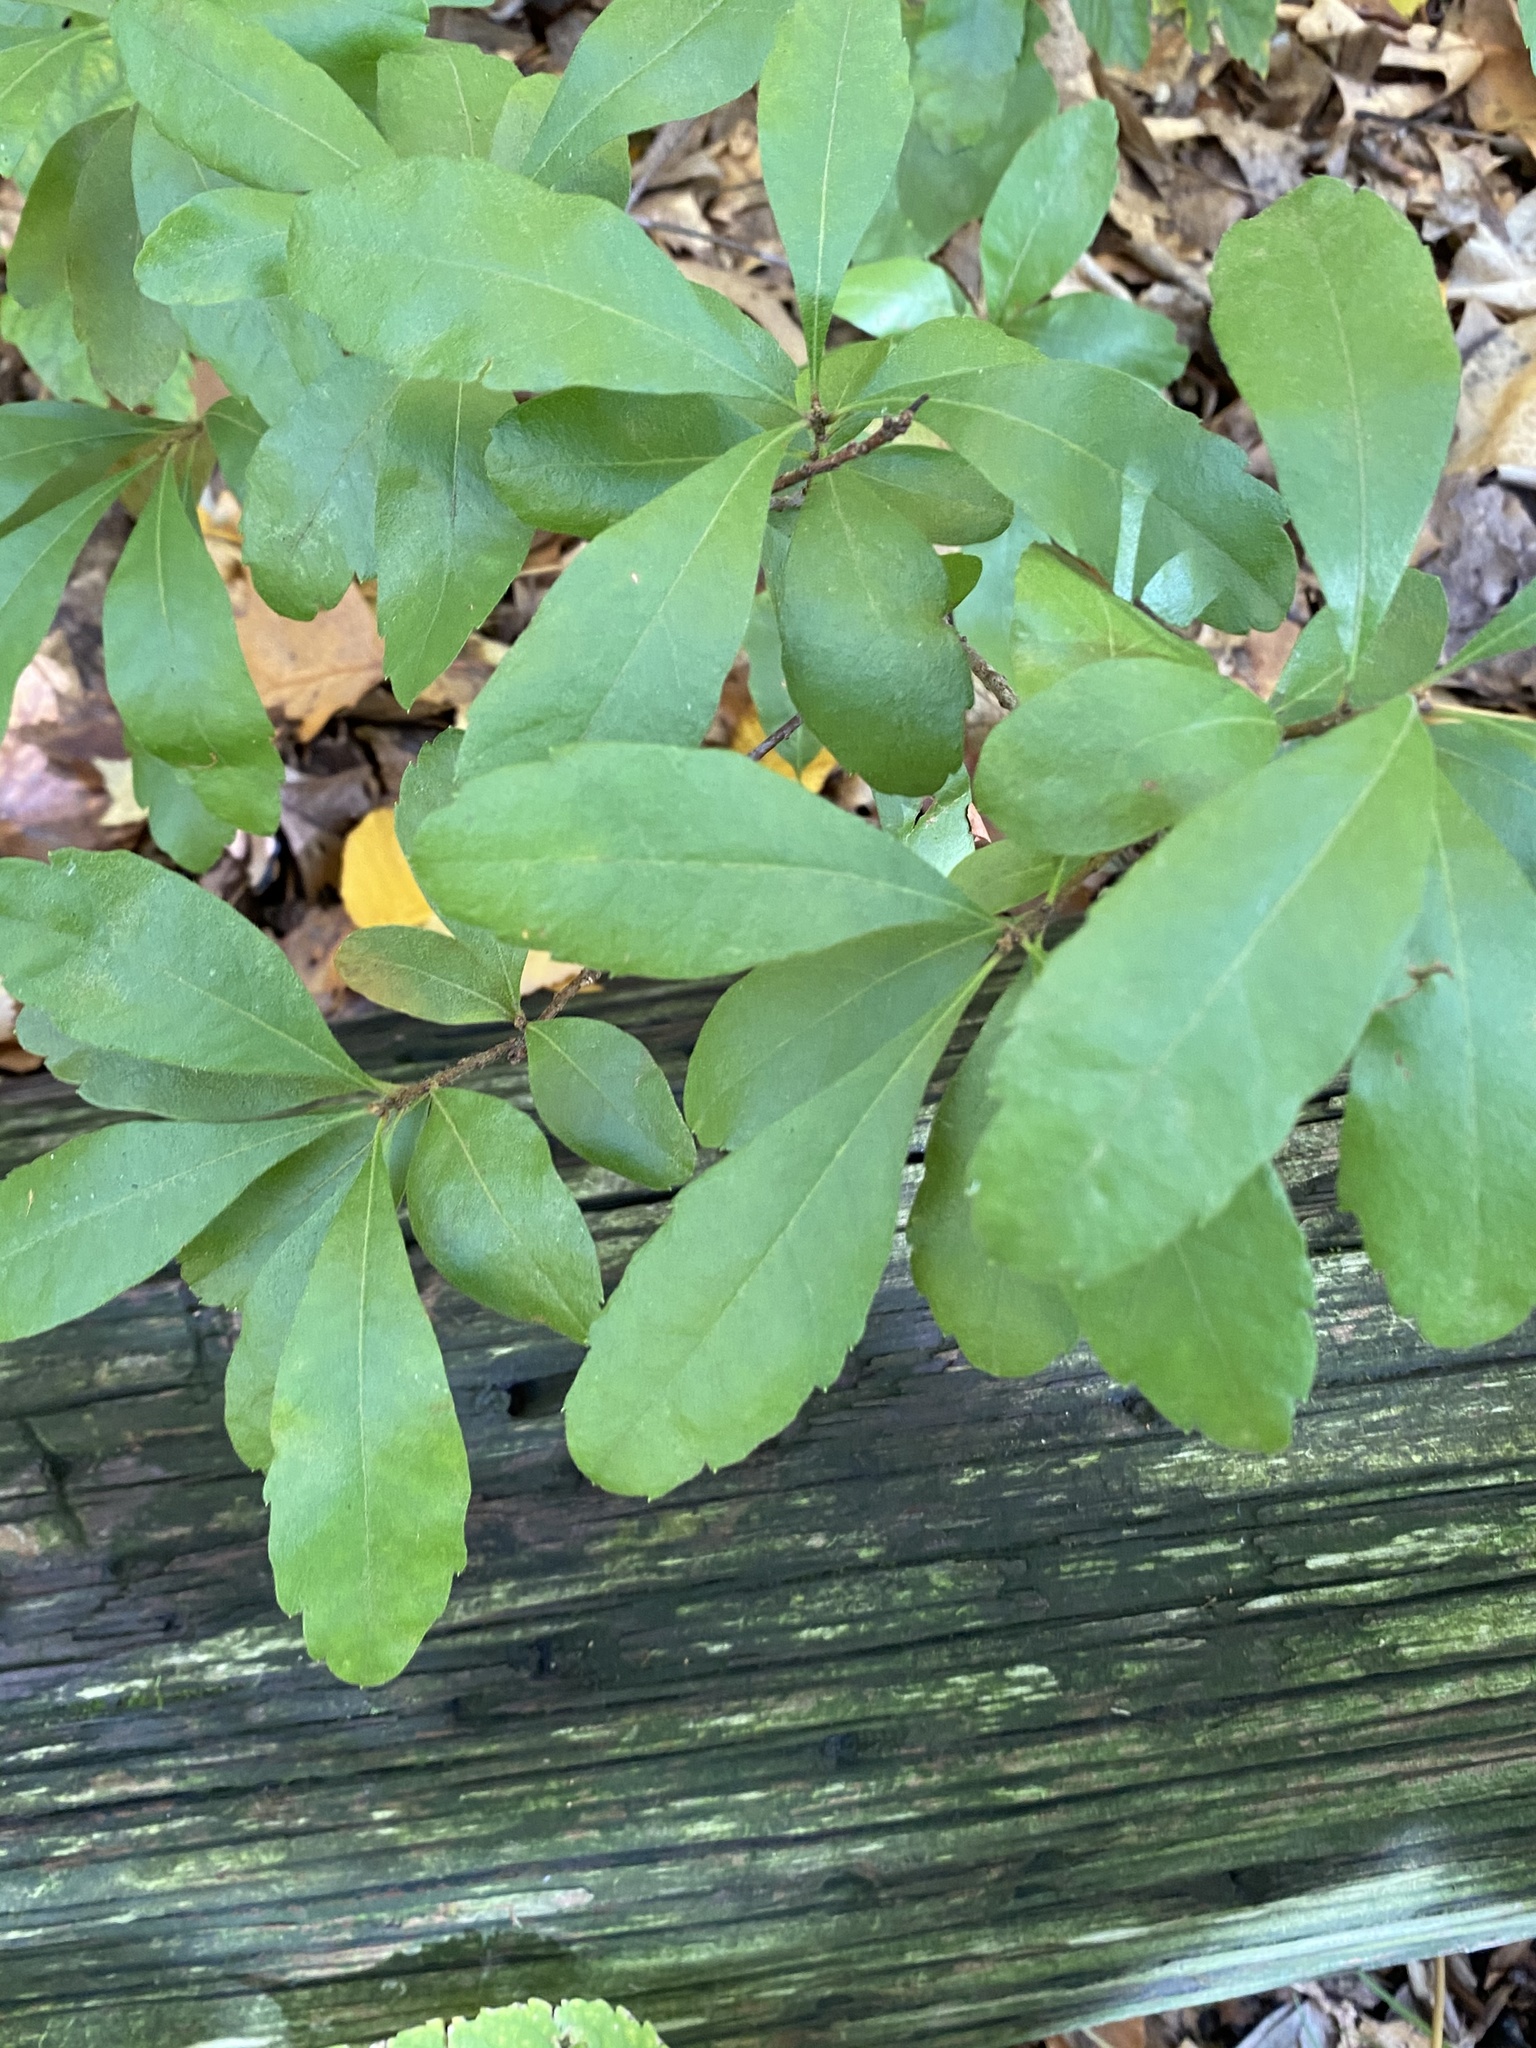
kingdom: Plantae
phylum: Tracheophyta
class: Magnoliopsida
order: Lamiales
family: Oleaceae
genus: Ligustrum
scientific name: Ligustrum obtusifolium
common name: Border privet
